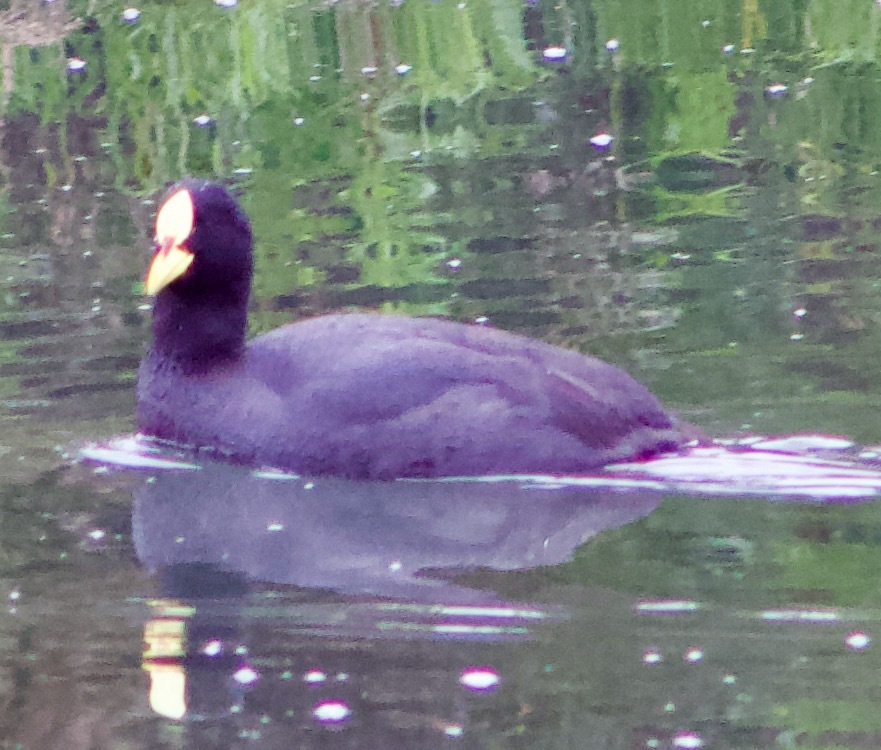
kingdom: Animalia
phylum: Chordata
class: Aves
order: Gruiformes
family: Rallidae
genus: Fulica
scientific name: Fulica armillata
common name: Red-gartered coot
